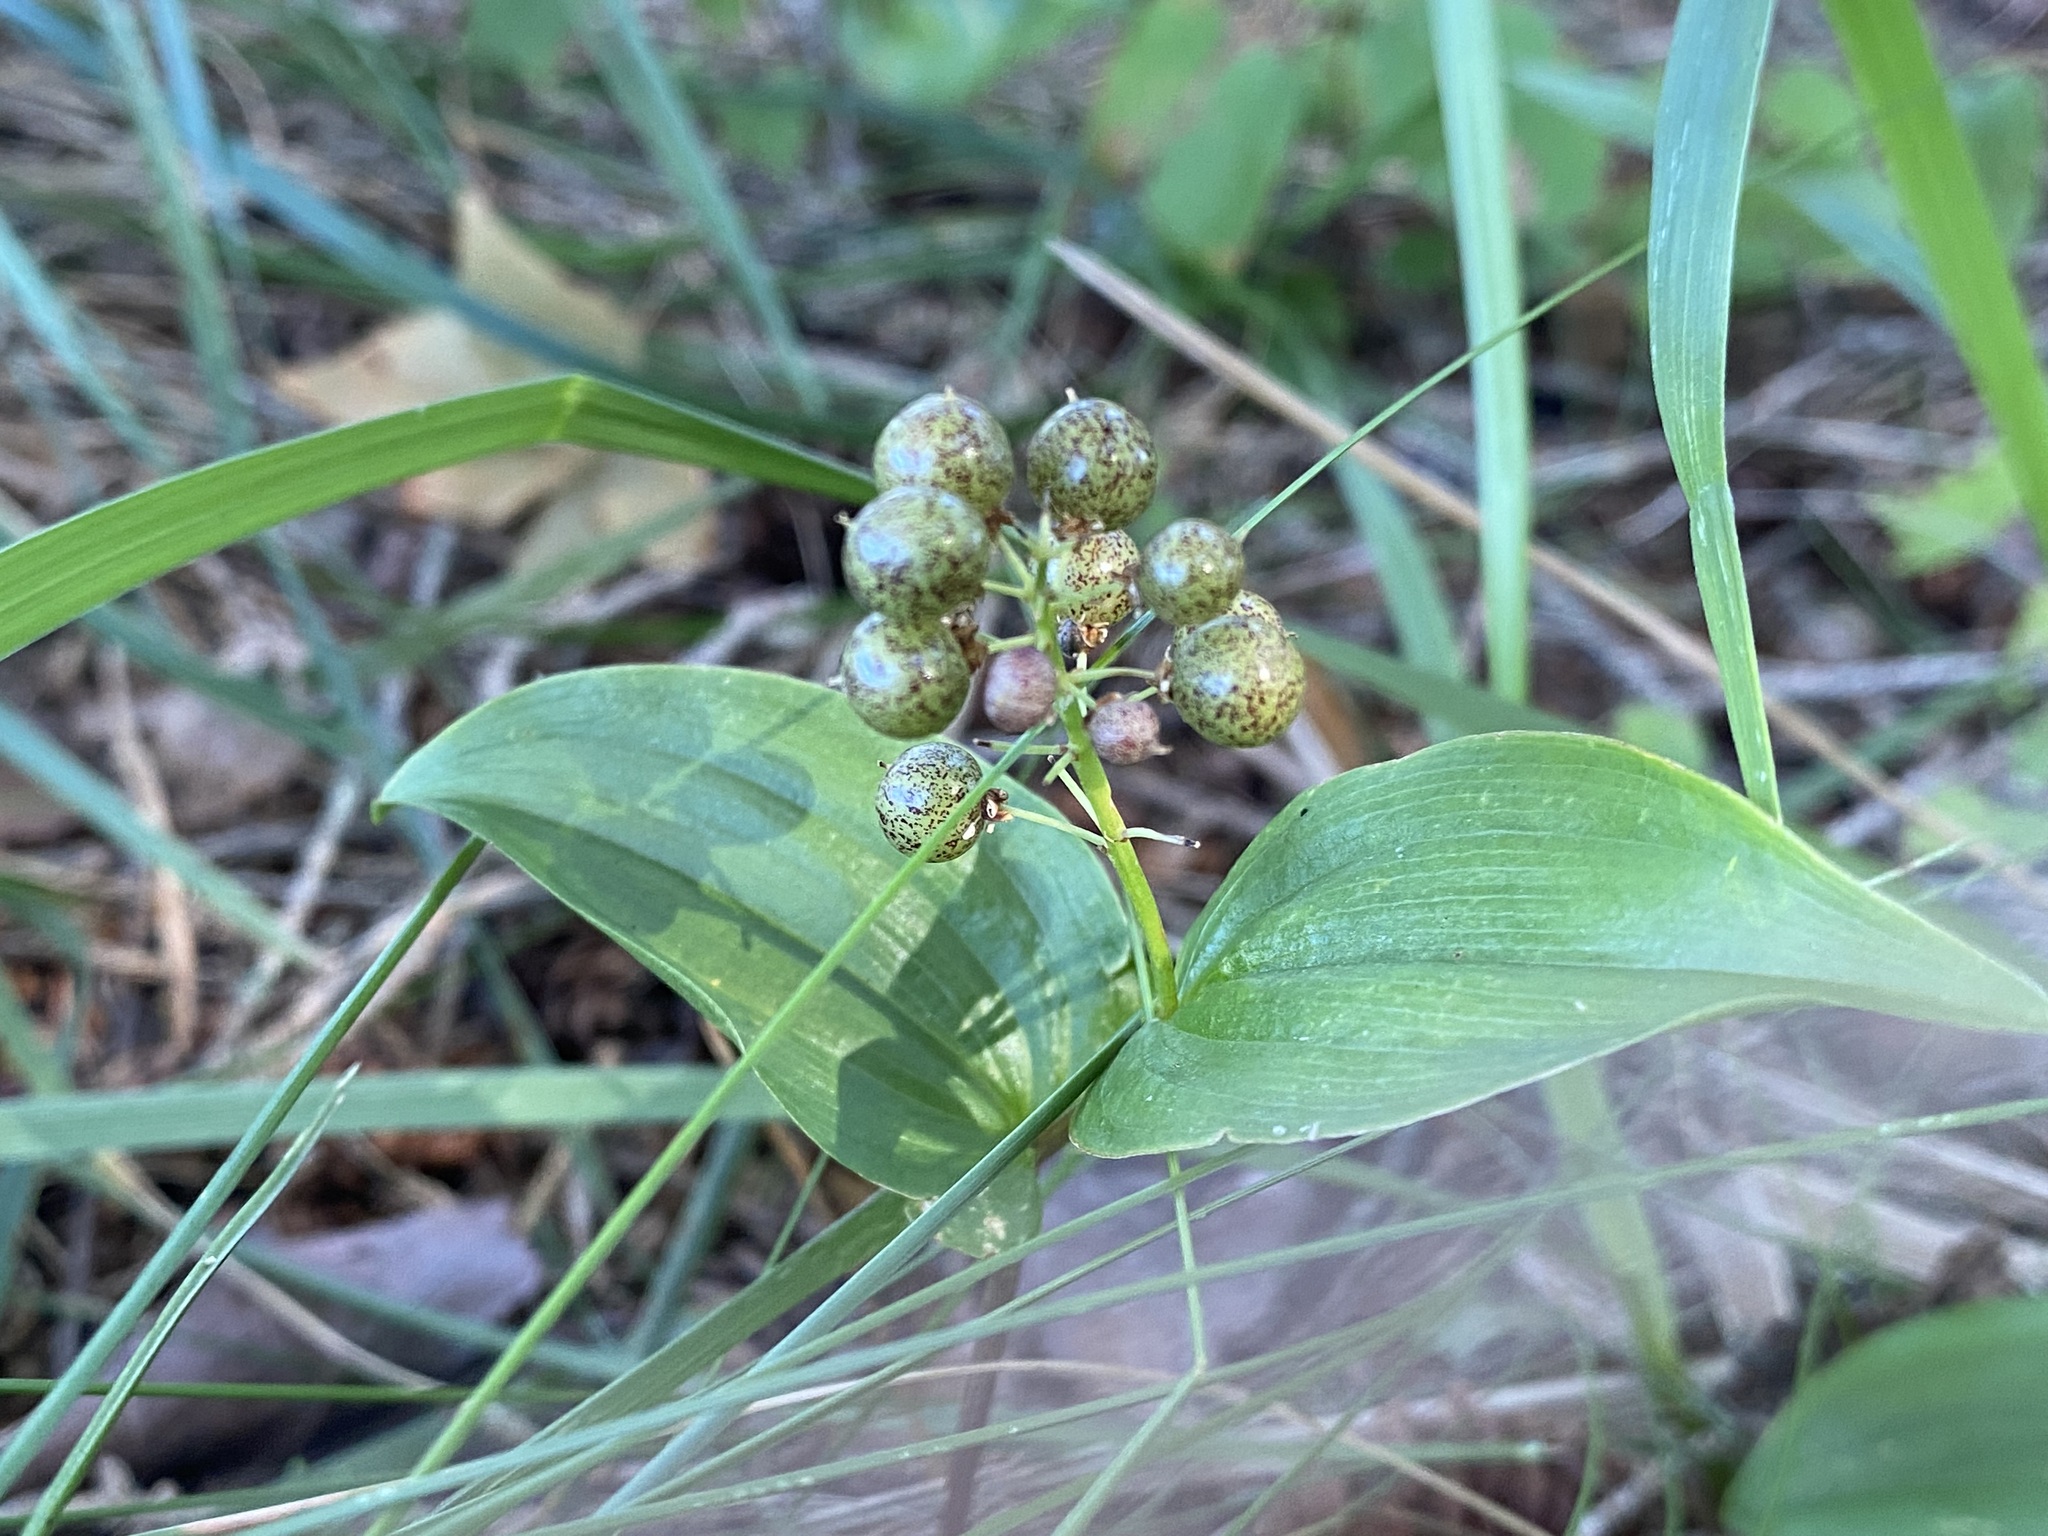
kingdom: Plantae
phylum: Tracheophyta
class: Liliopsida
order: Asparagales
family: Asparagaceae
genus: Maianthemum
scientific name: Maianthemum canadense
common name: False lily-of-the-valley
